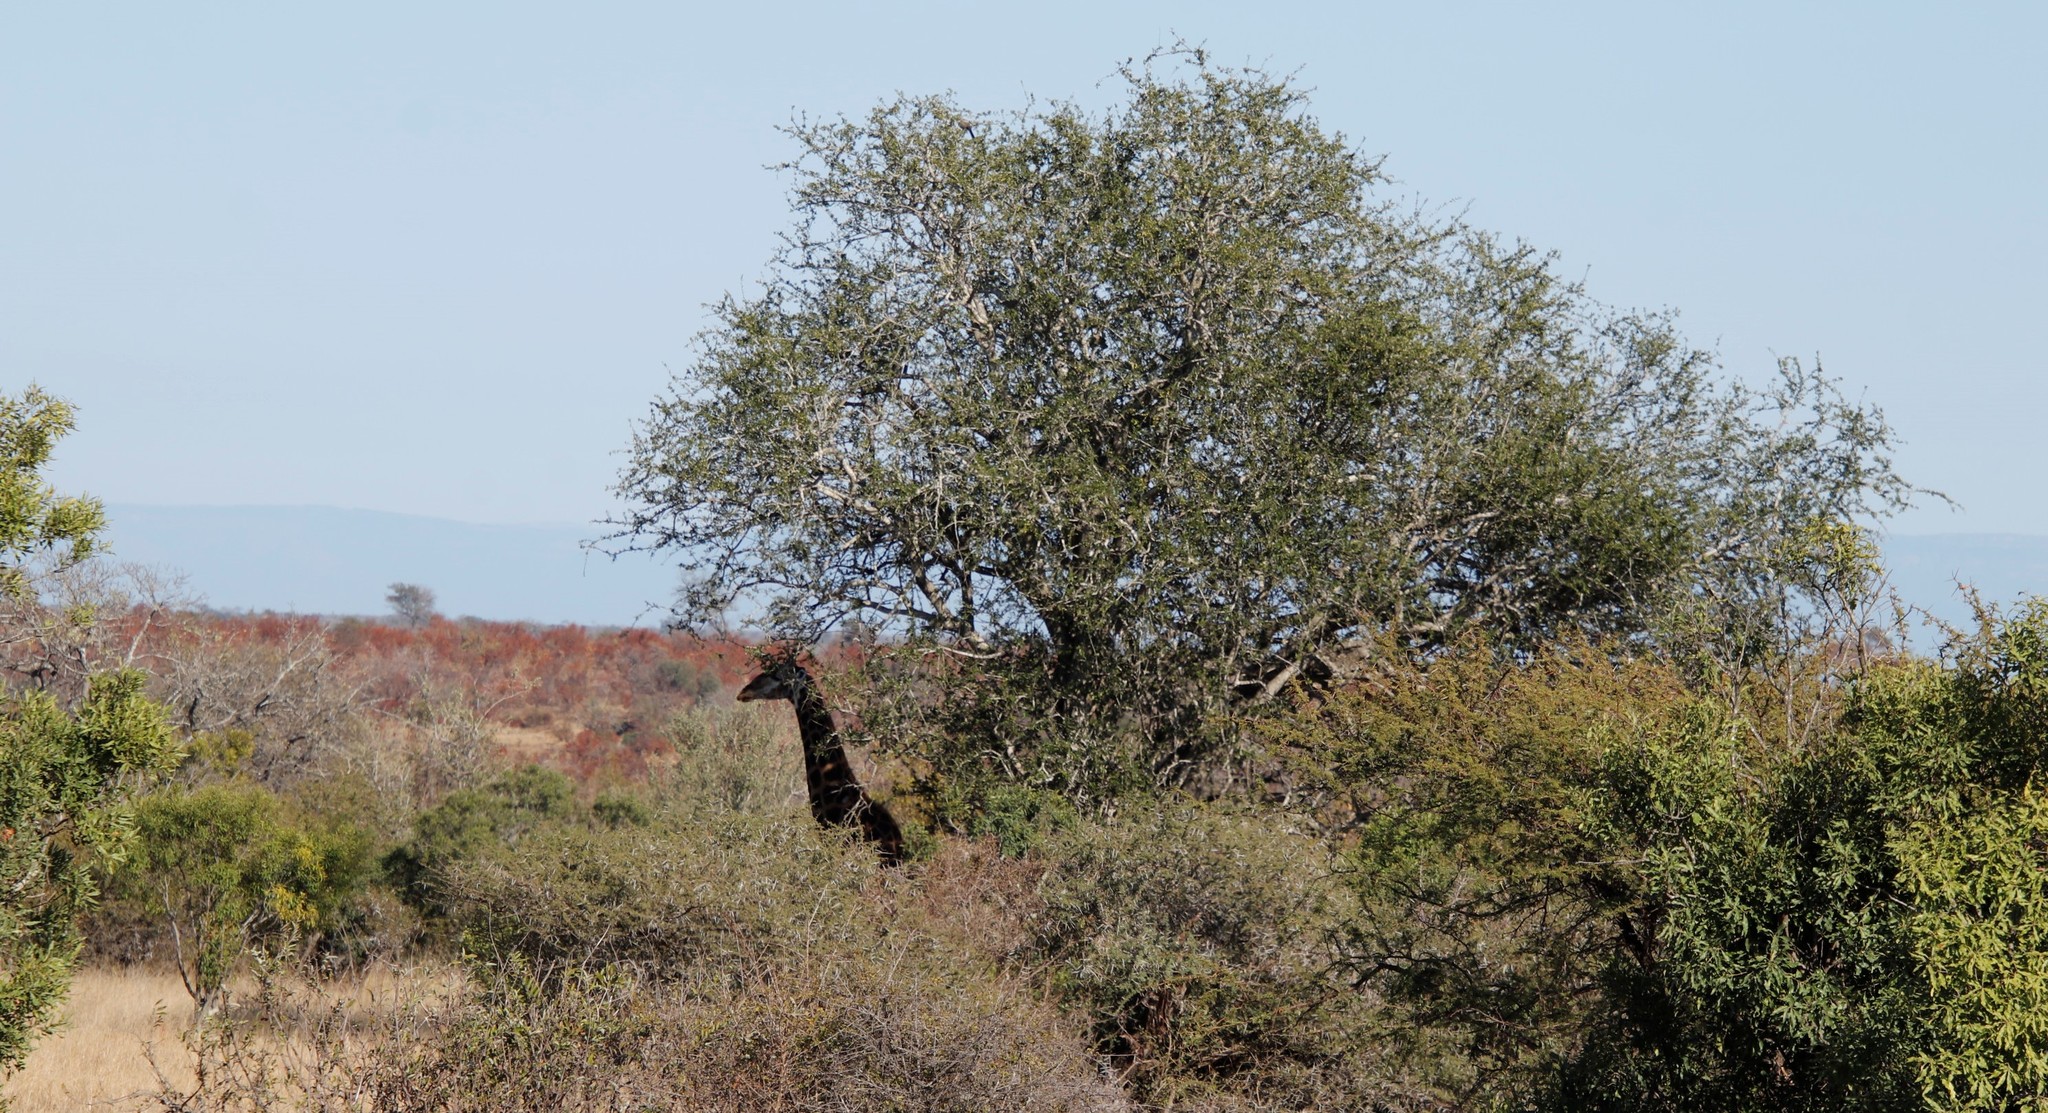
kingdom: Animalia
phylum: Chordata
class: Mammalia
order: Artiodactyla
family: Giraffidae
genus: Giraffa
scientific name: Giraffa giraffa
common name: Southern giraffe
